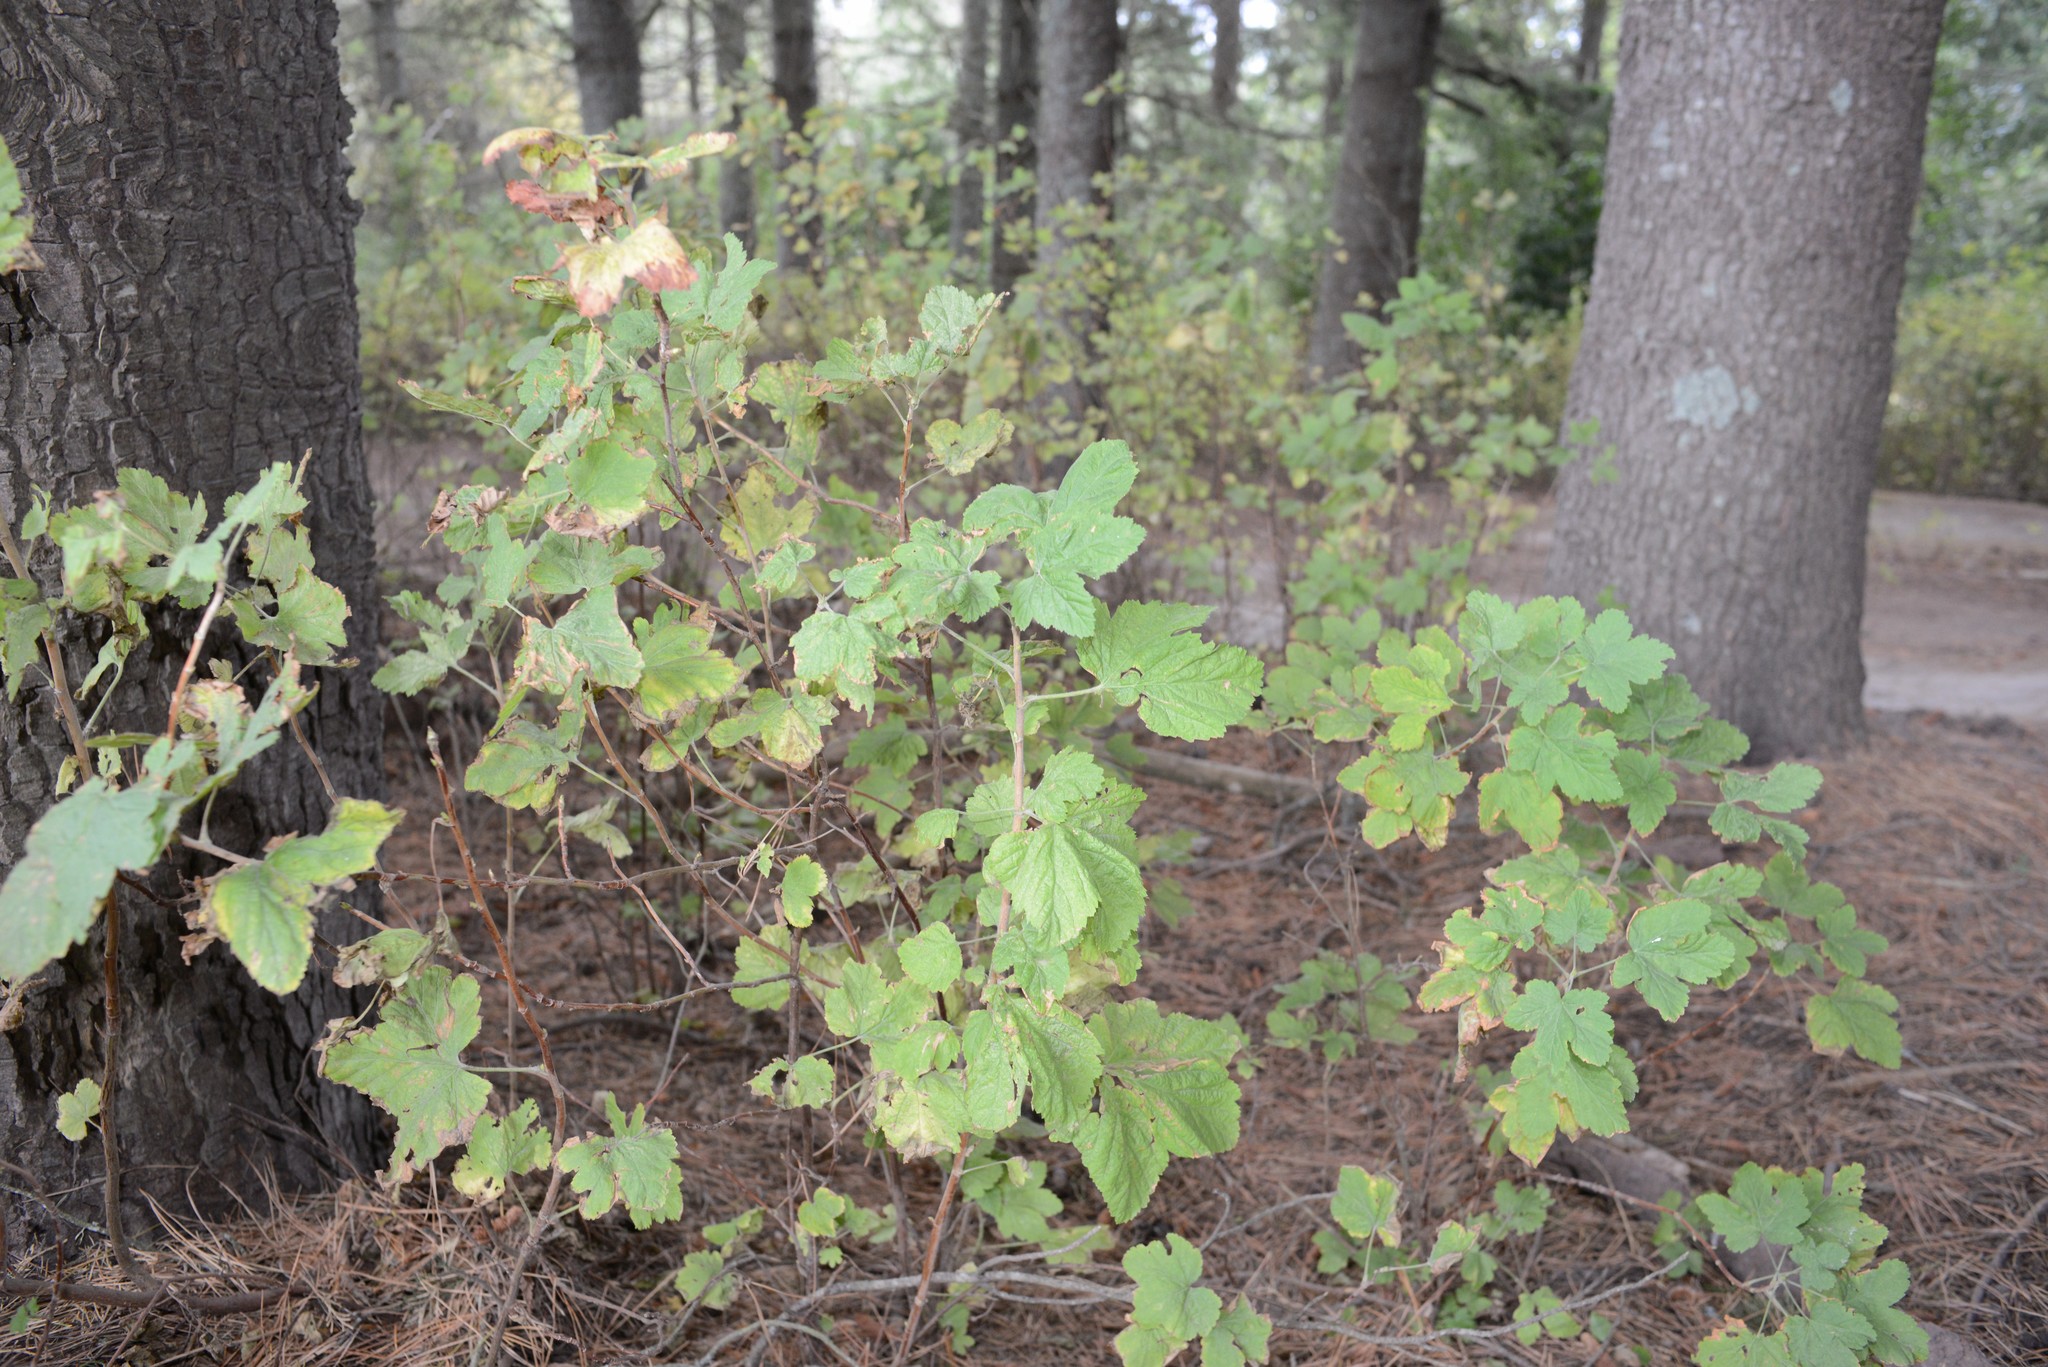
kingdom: Plantae
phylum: Tracheophyta
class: Magnoliopsida
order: Saxifragales
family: Grossulariaceae
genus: Ribes
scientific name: Ribes sanguineum
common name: Flowering currant
